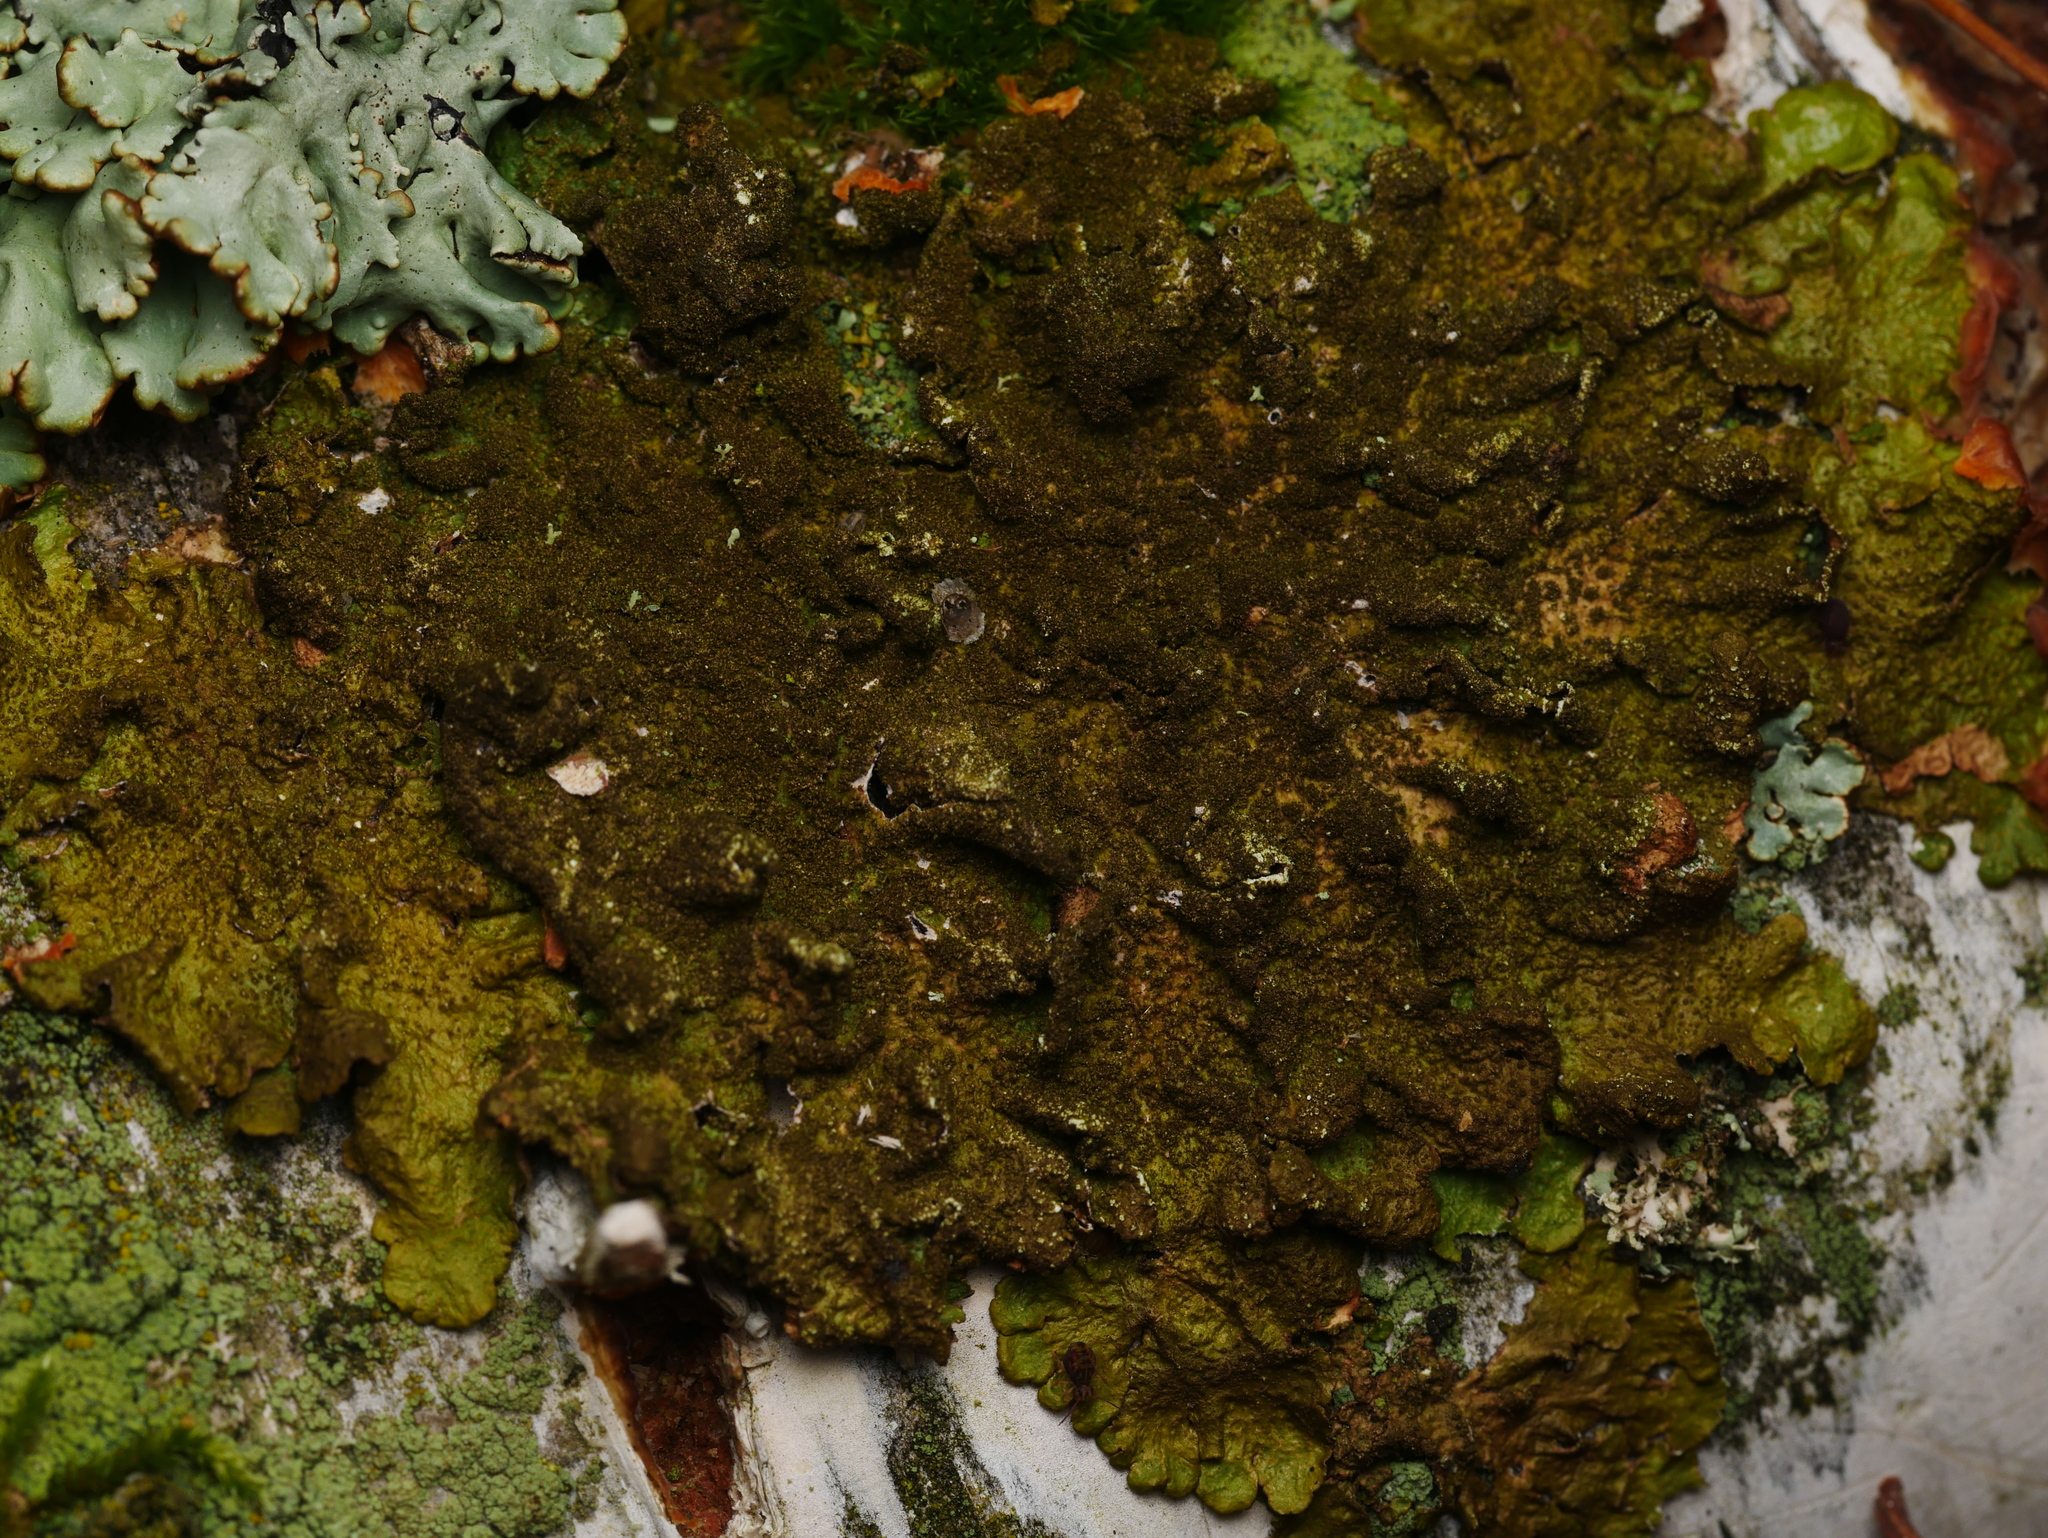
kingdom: Fungi
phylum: Ascomycota
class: Lecanoromycetes
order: Lecanorales
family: Parmeliaceae
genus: Melanelixia
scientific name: Melanelixia subaurifera
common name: Abraded camouflage lichen
